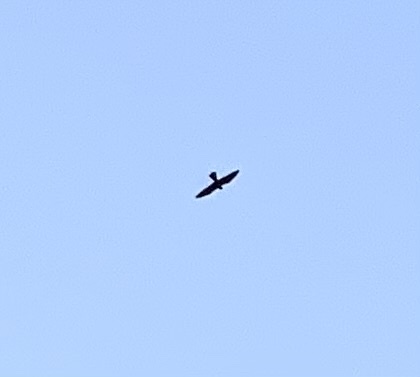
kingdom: Animalia
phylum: Chordata
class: Aves
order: Falconiformes
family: Falconidae
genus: Falco
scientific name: Falco eleonorae
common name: Eleonora's falcon
